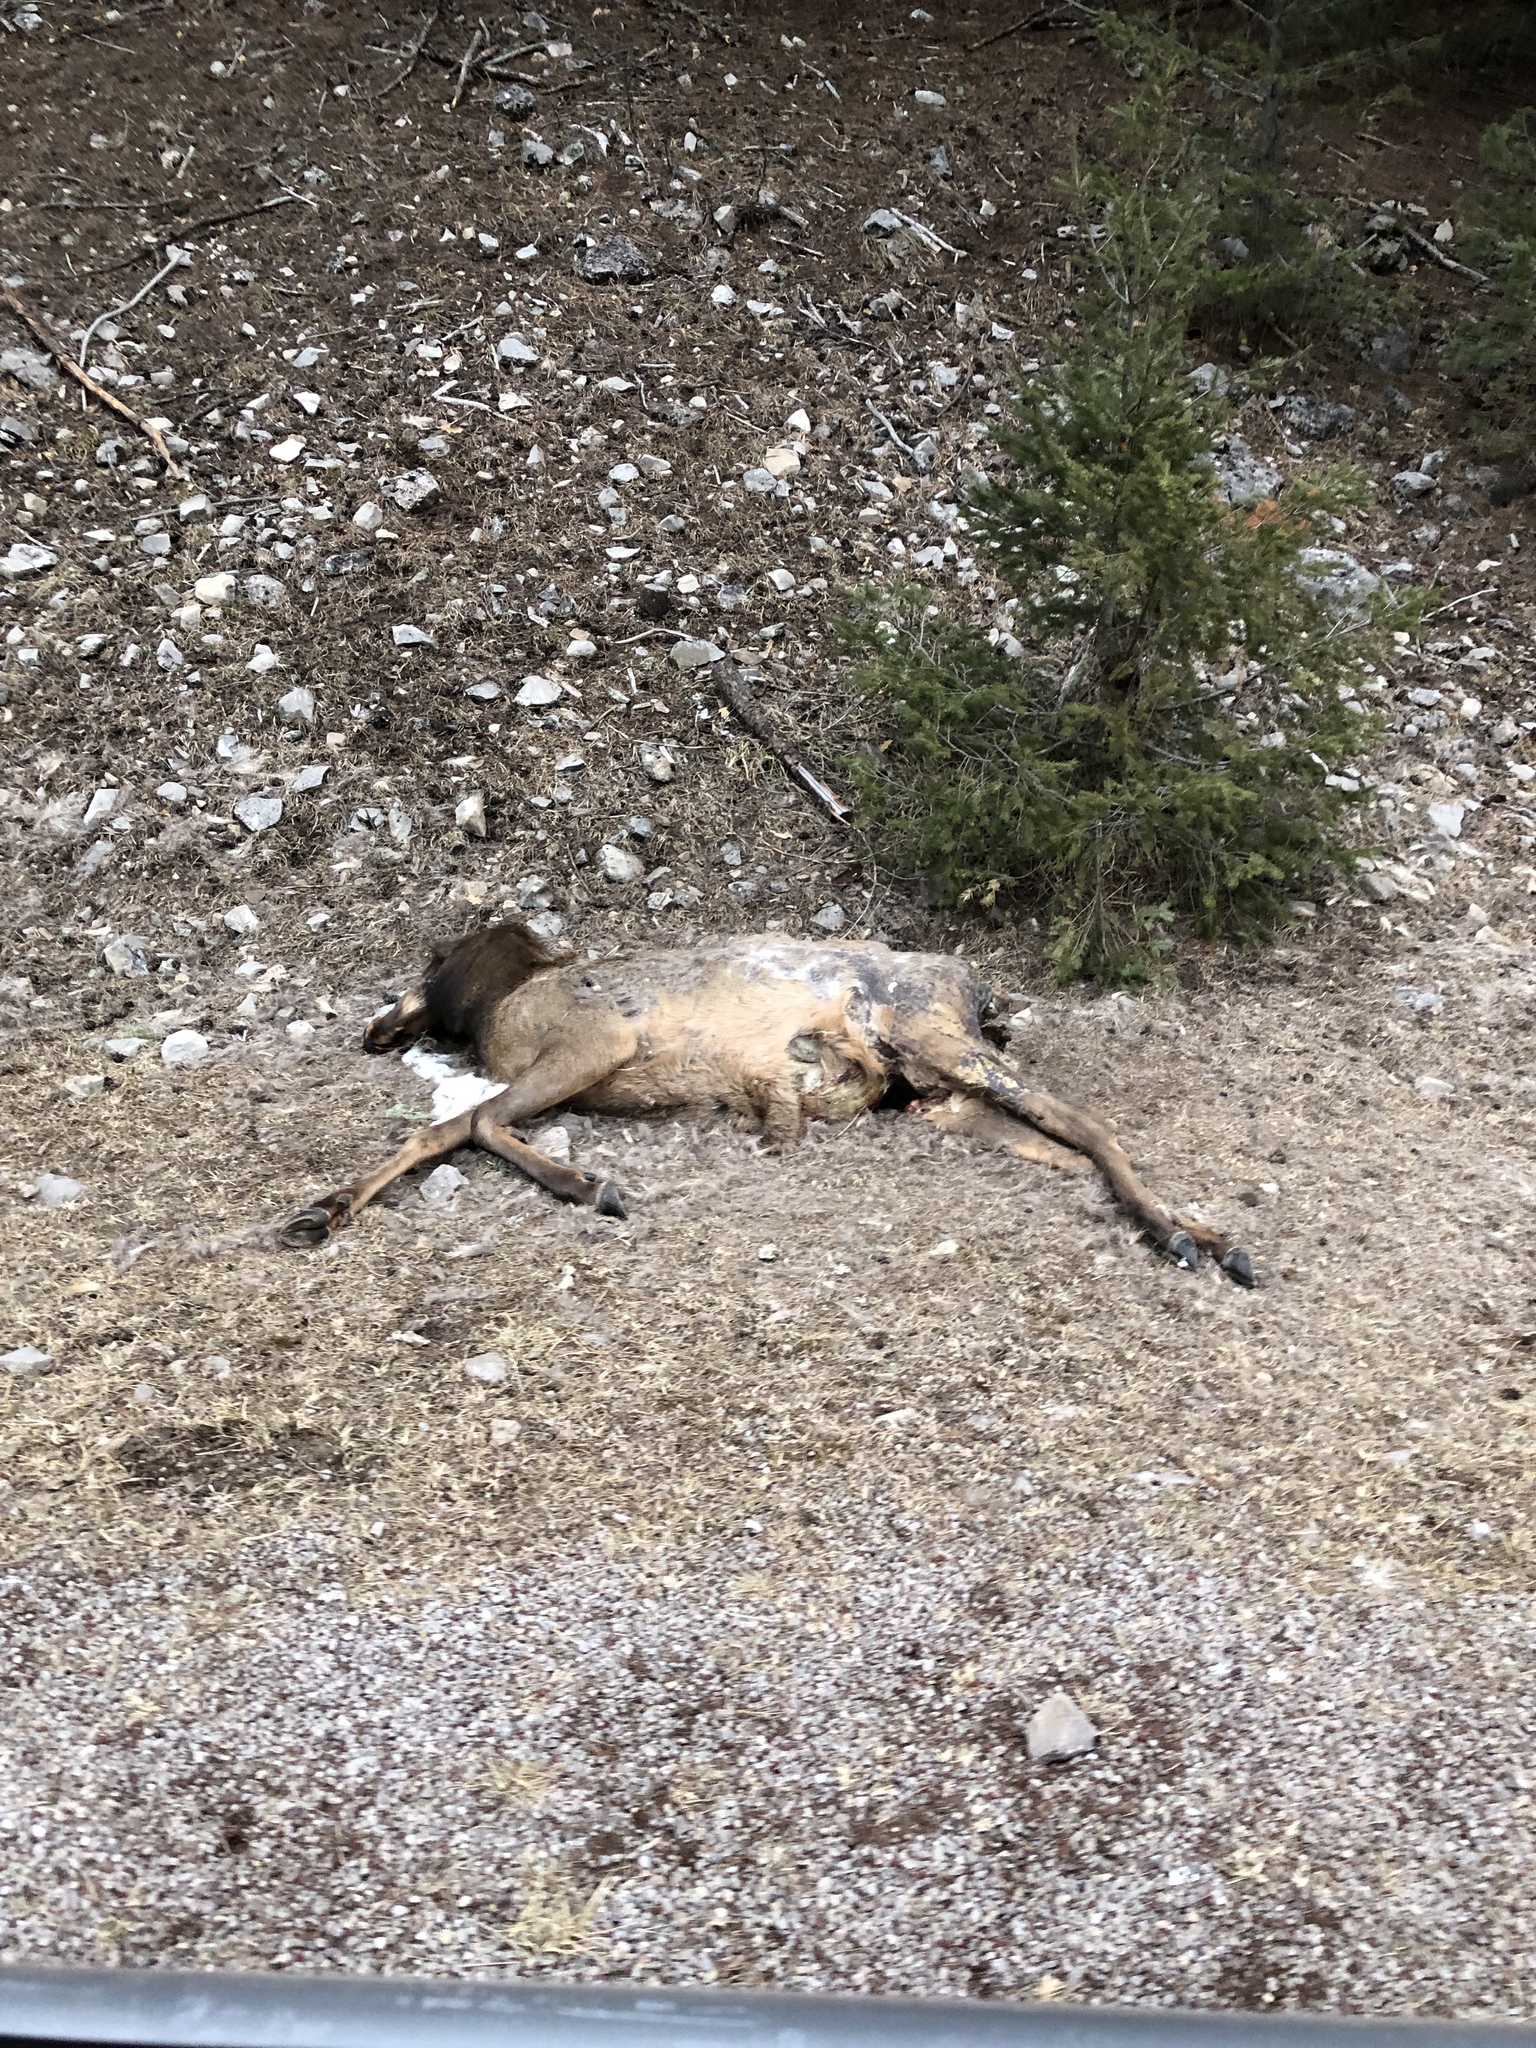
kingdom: Animalia
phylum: Chordata
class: Mammalia
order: Artiodactyla
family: Cervidae
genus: Cervus
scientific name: Cervus elaphus
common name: Red deer
